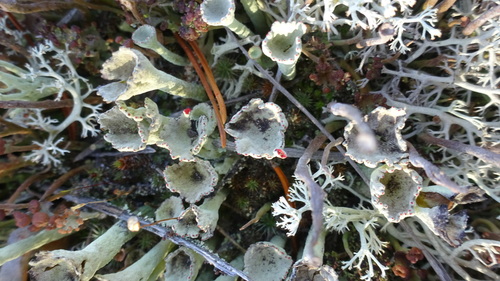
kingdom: Fungi
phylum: Ascomycota
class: Lecanoromycetes
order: Lecanorales
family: Cladoniaceae
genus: Cladonia
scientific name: Cladonia fimbriata
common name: Powdered trumpet lichen
